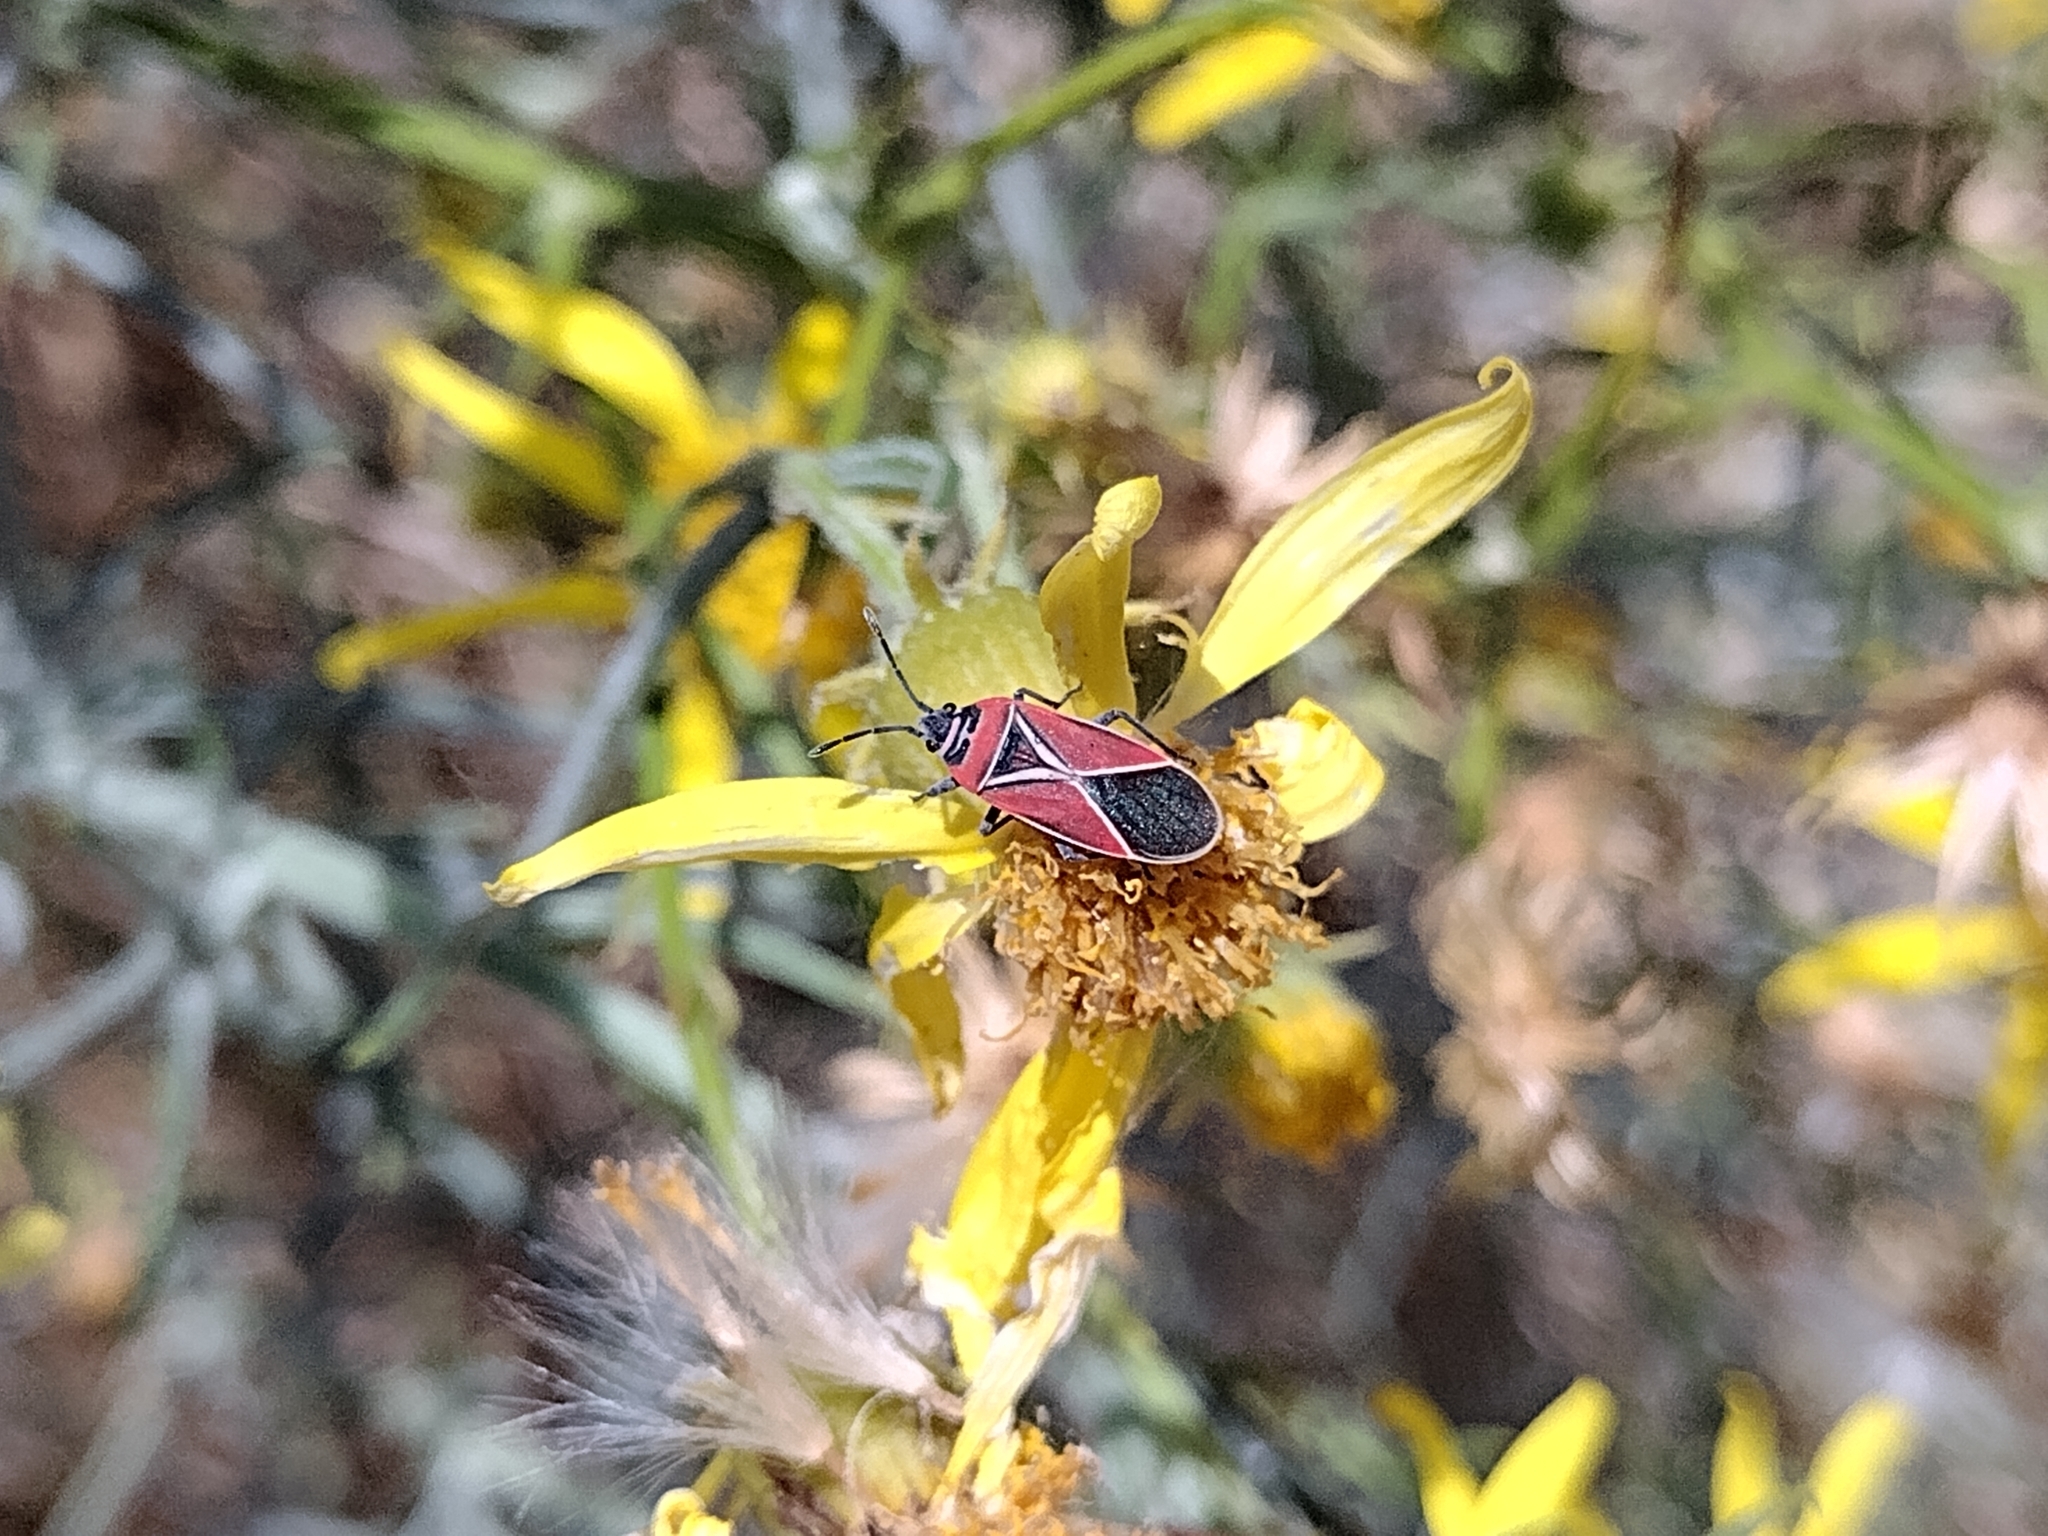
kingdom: Animalia
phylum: Arthropoda
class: Insecta
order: Hemiptera
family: Lygaeidae
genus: Neacoryphus
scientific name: Neacoryphus bicrucis
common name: Lygaeid bug
